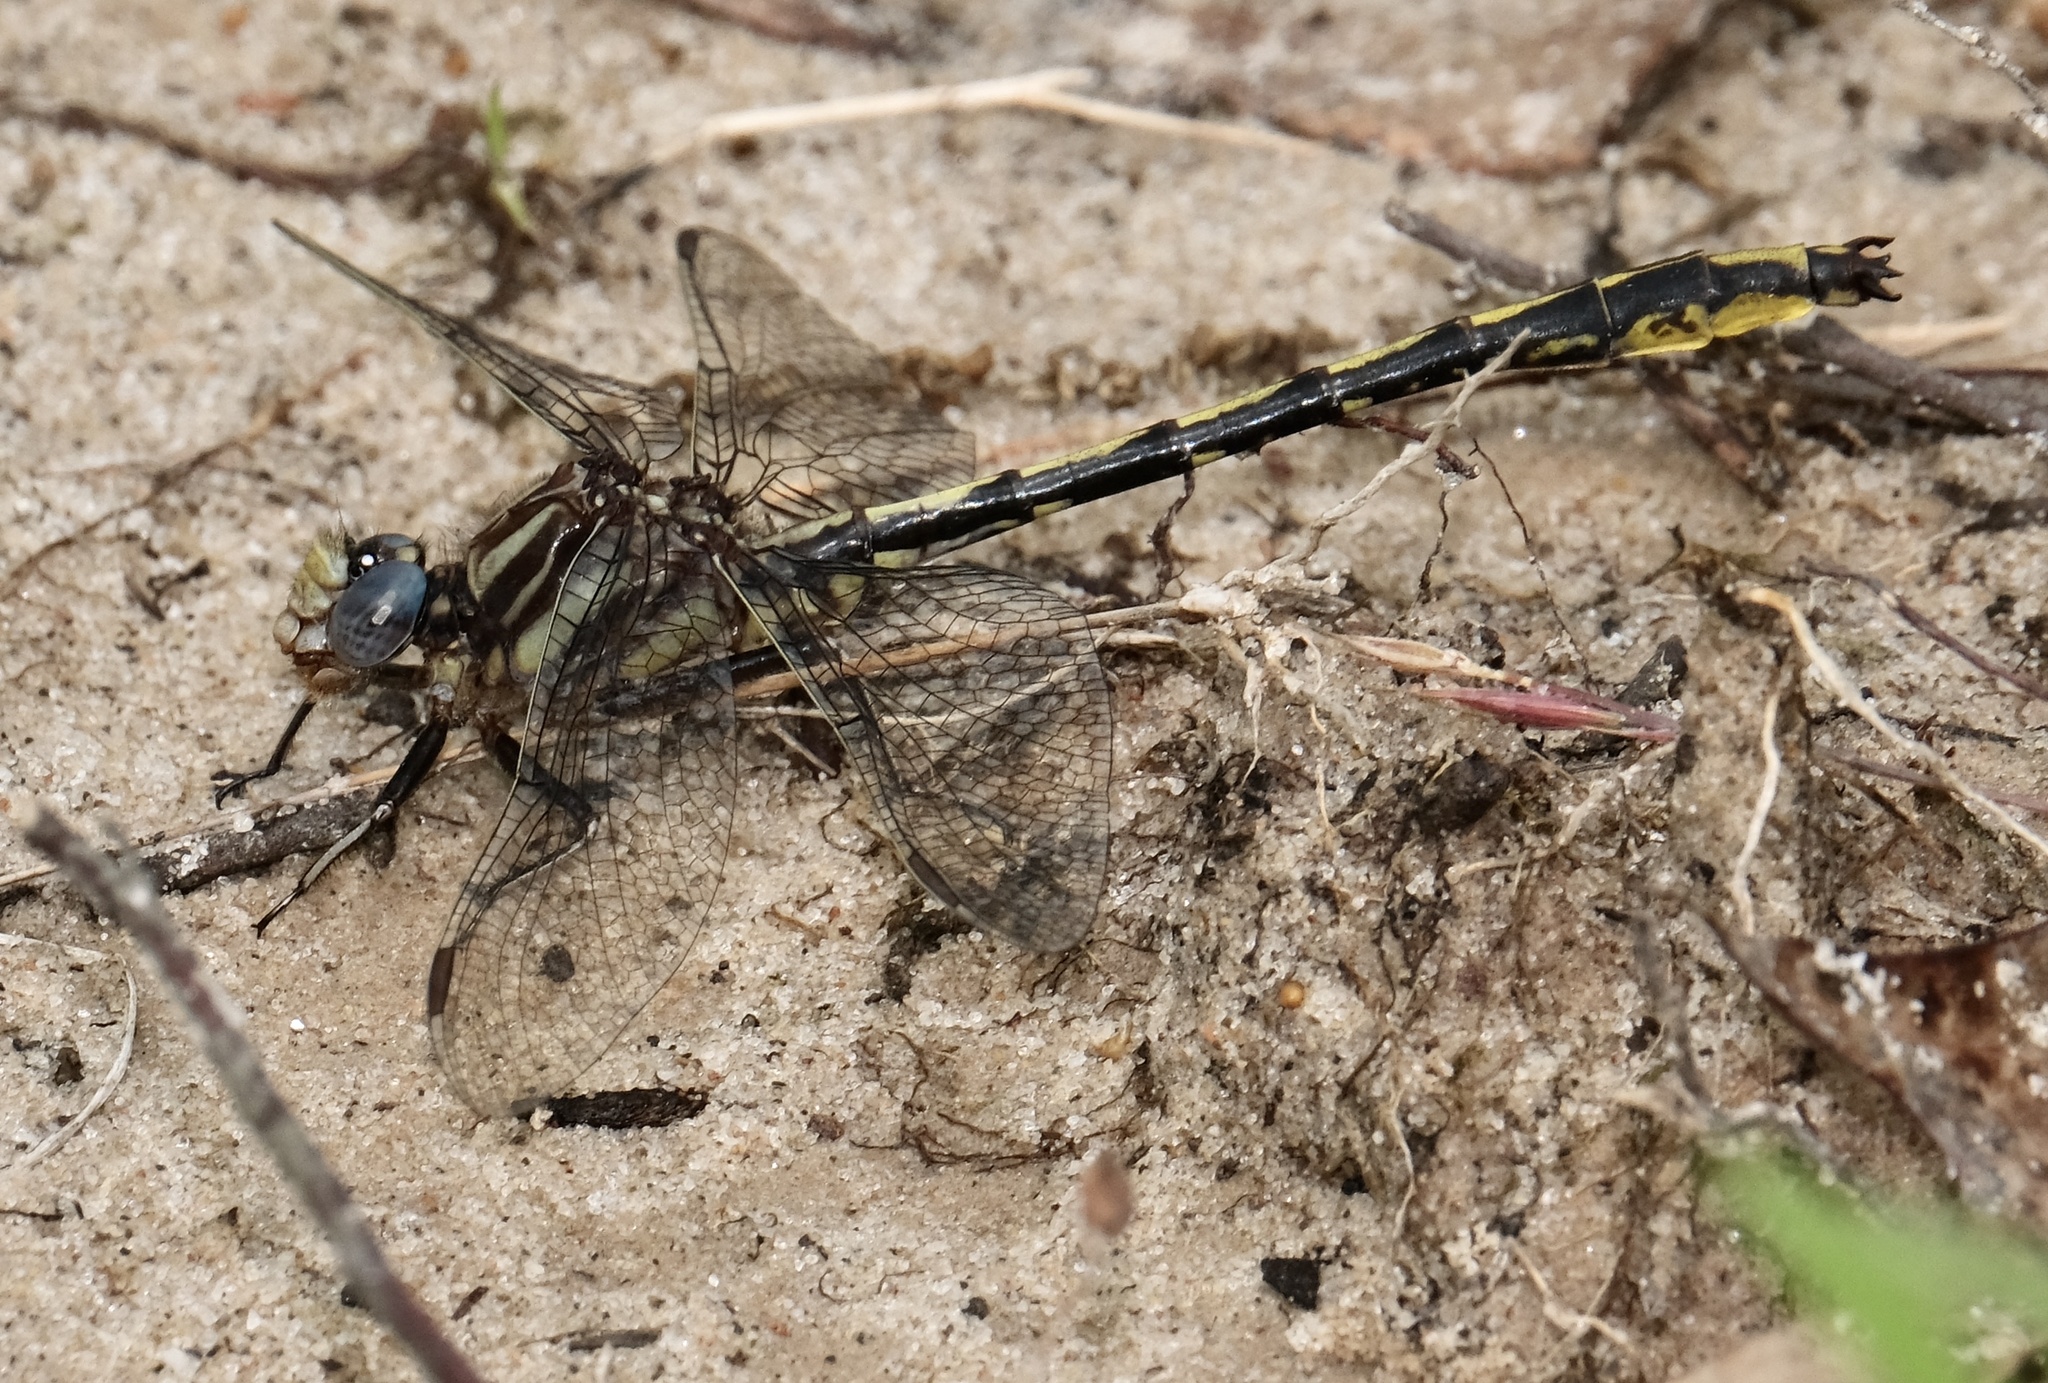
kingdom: Animalia
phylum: Arthropoda
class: Insecta
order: Odonata
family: Gomphidae
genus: Phanogomphus
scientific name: Phanogomphus oklahomensis
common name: Oklahoma clubtail
